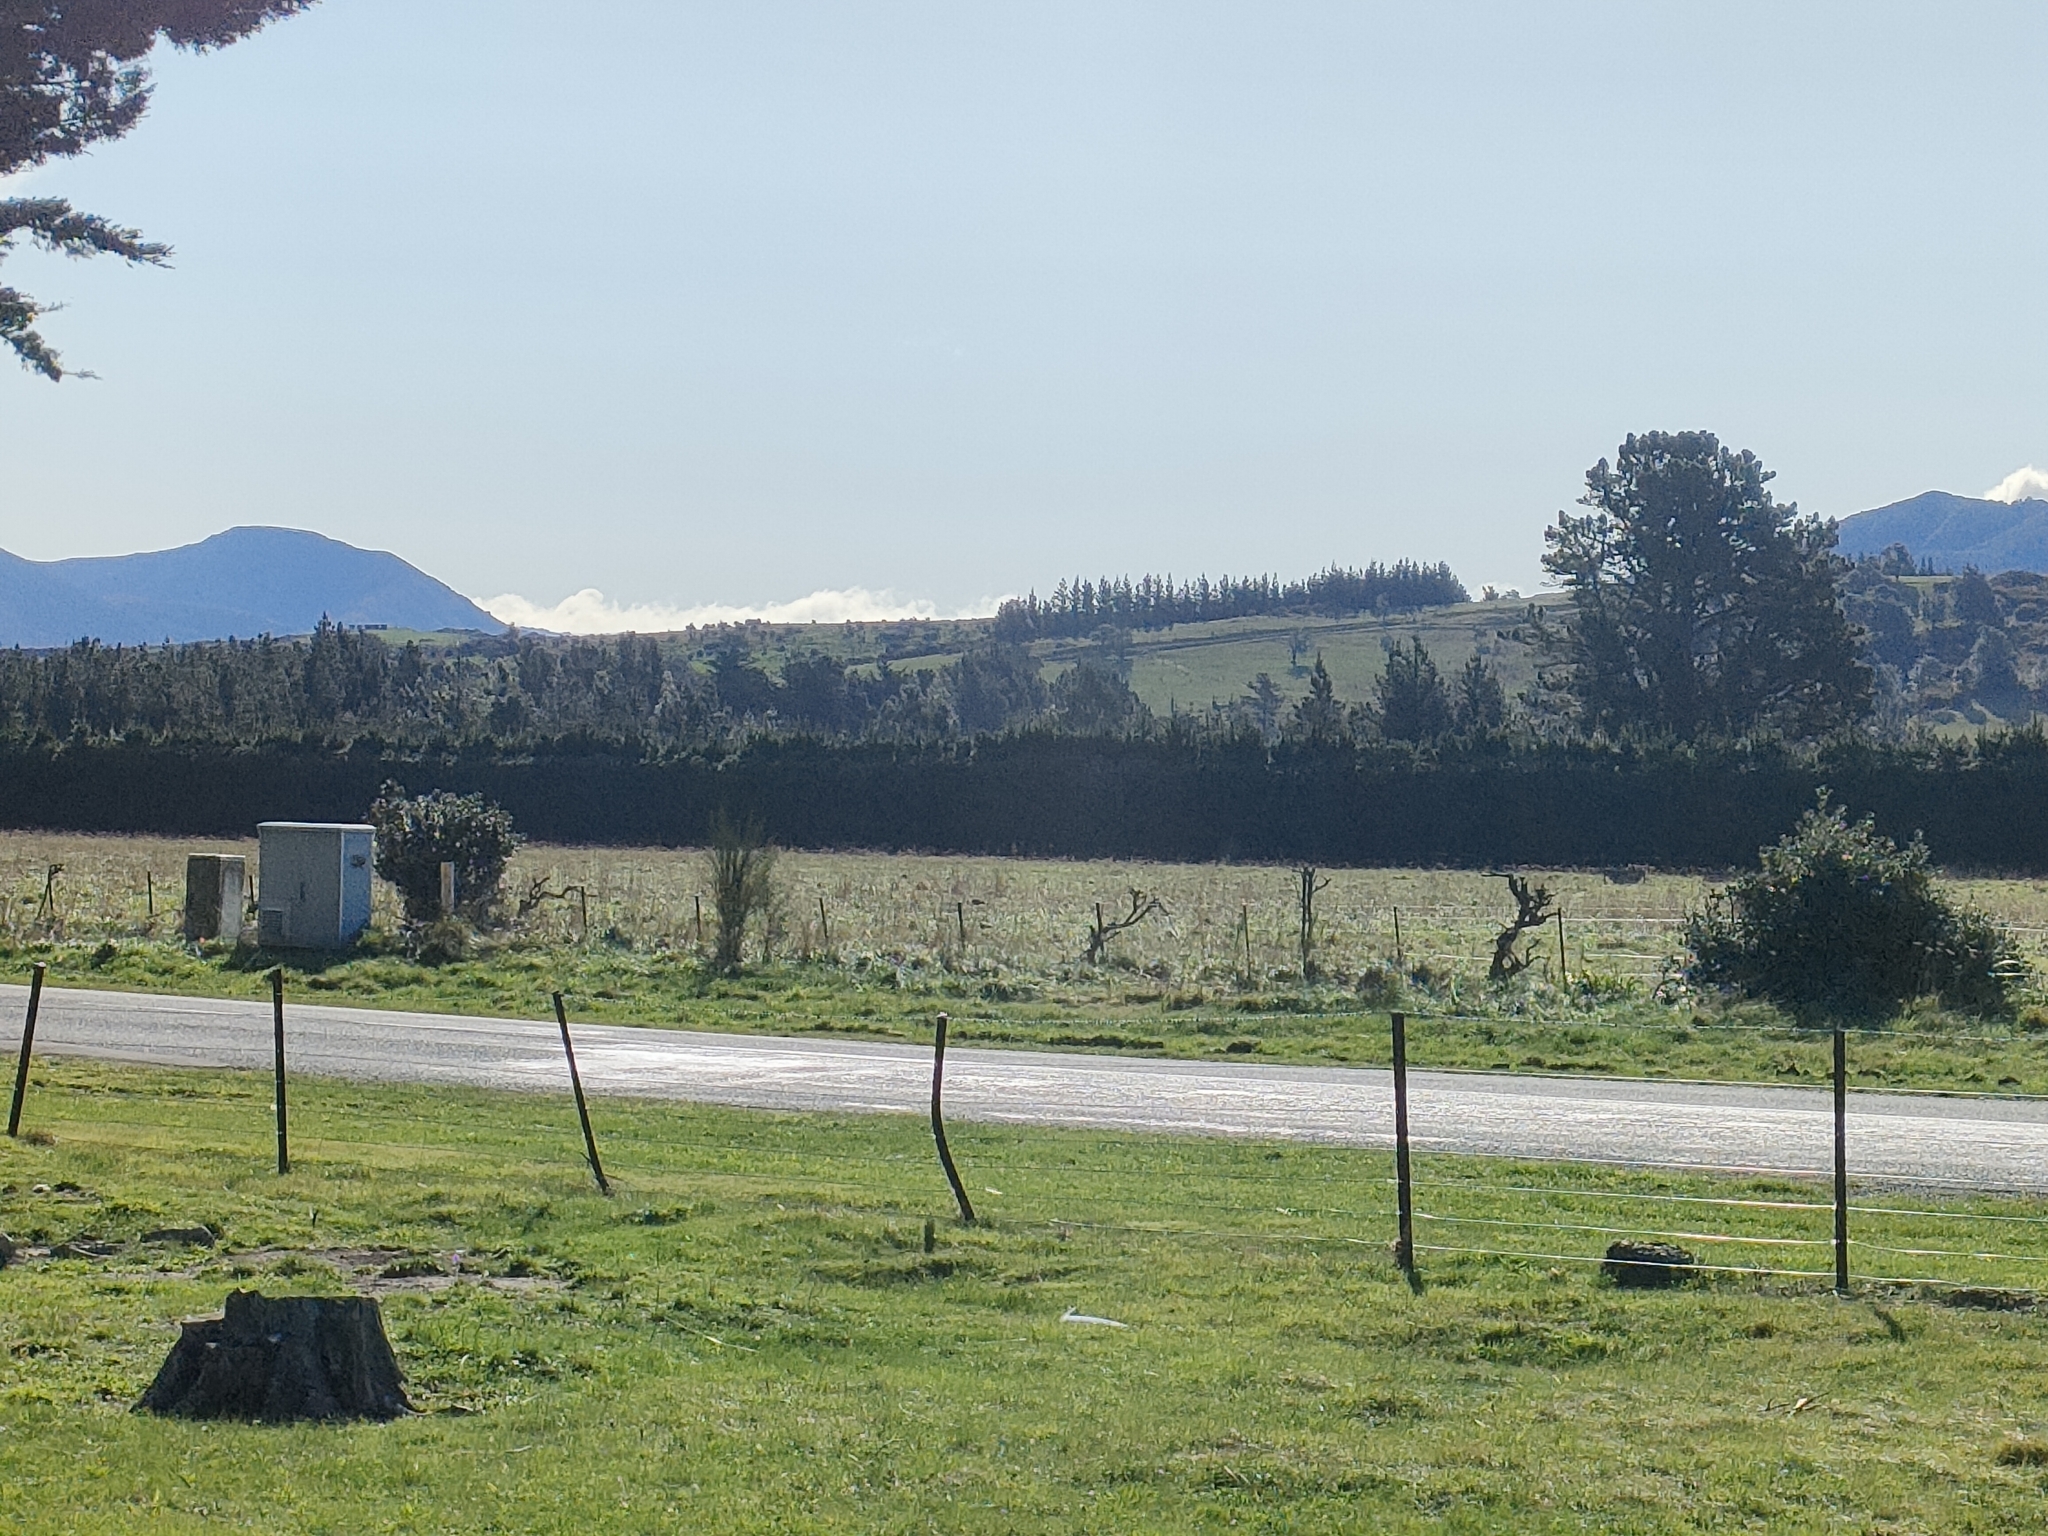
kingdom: Plantae
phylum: Tracheophyta
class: Magnoliopsida
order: Aquifoliales
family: Aquifoliaceae
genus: Ilex
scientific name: Ilex aquifolium
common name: English holly
